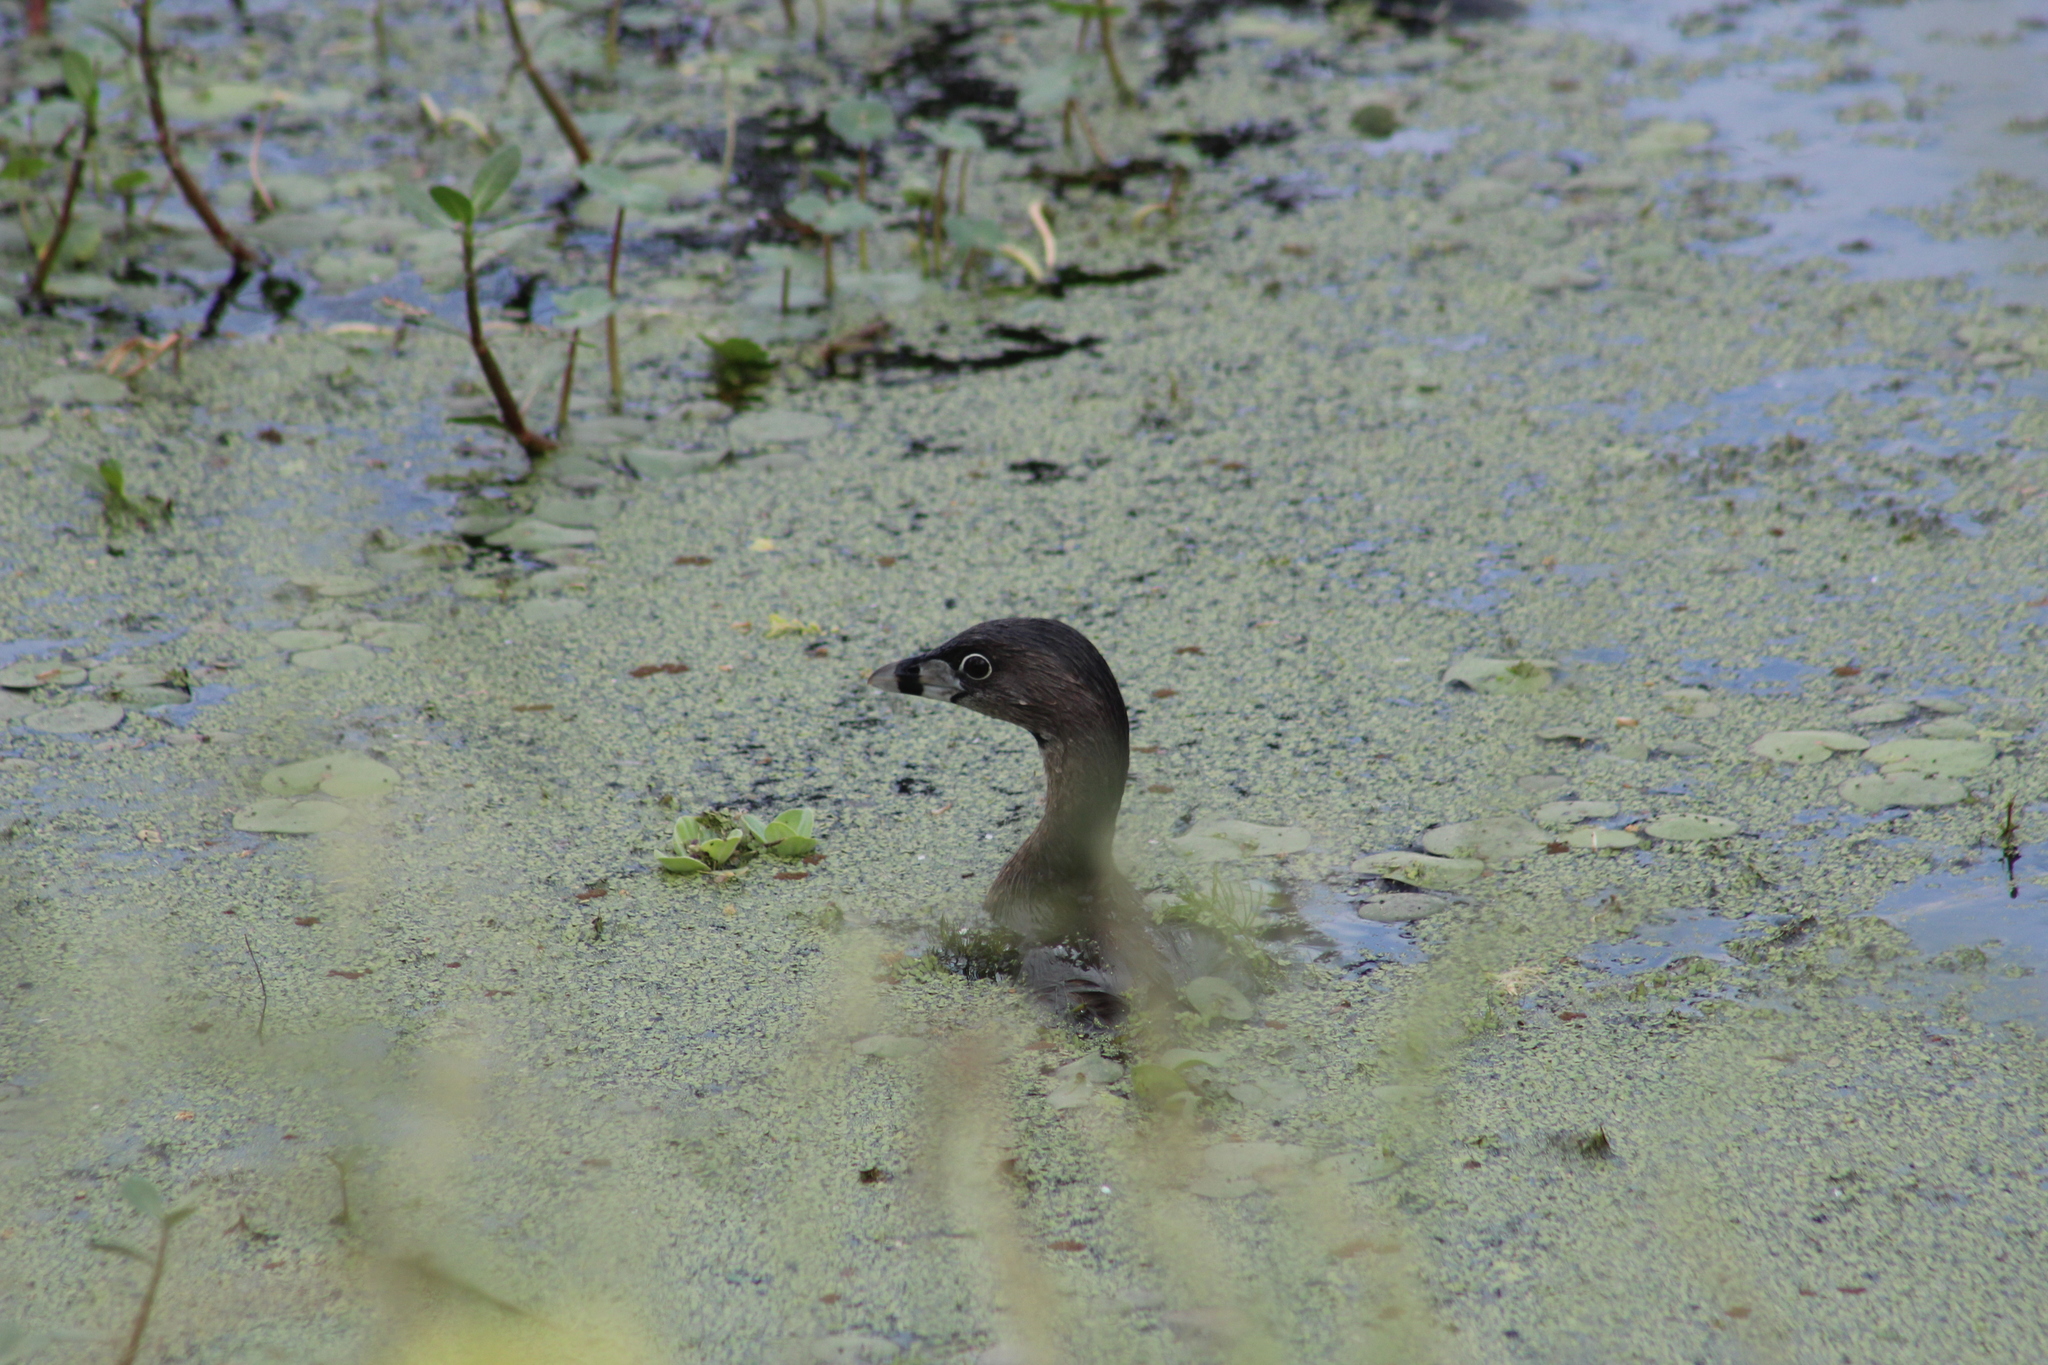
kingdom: Animalia
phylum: Chordata
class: Aves
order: Podicipediformes
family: Podicipedidae
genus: Podilymbus
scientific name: Podilymbus podiceps
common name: Pied-billed grebe
